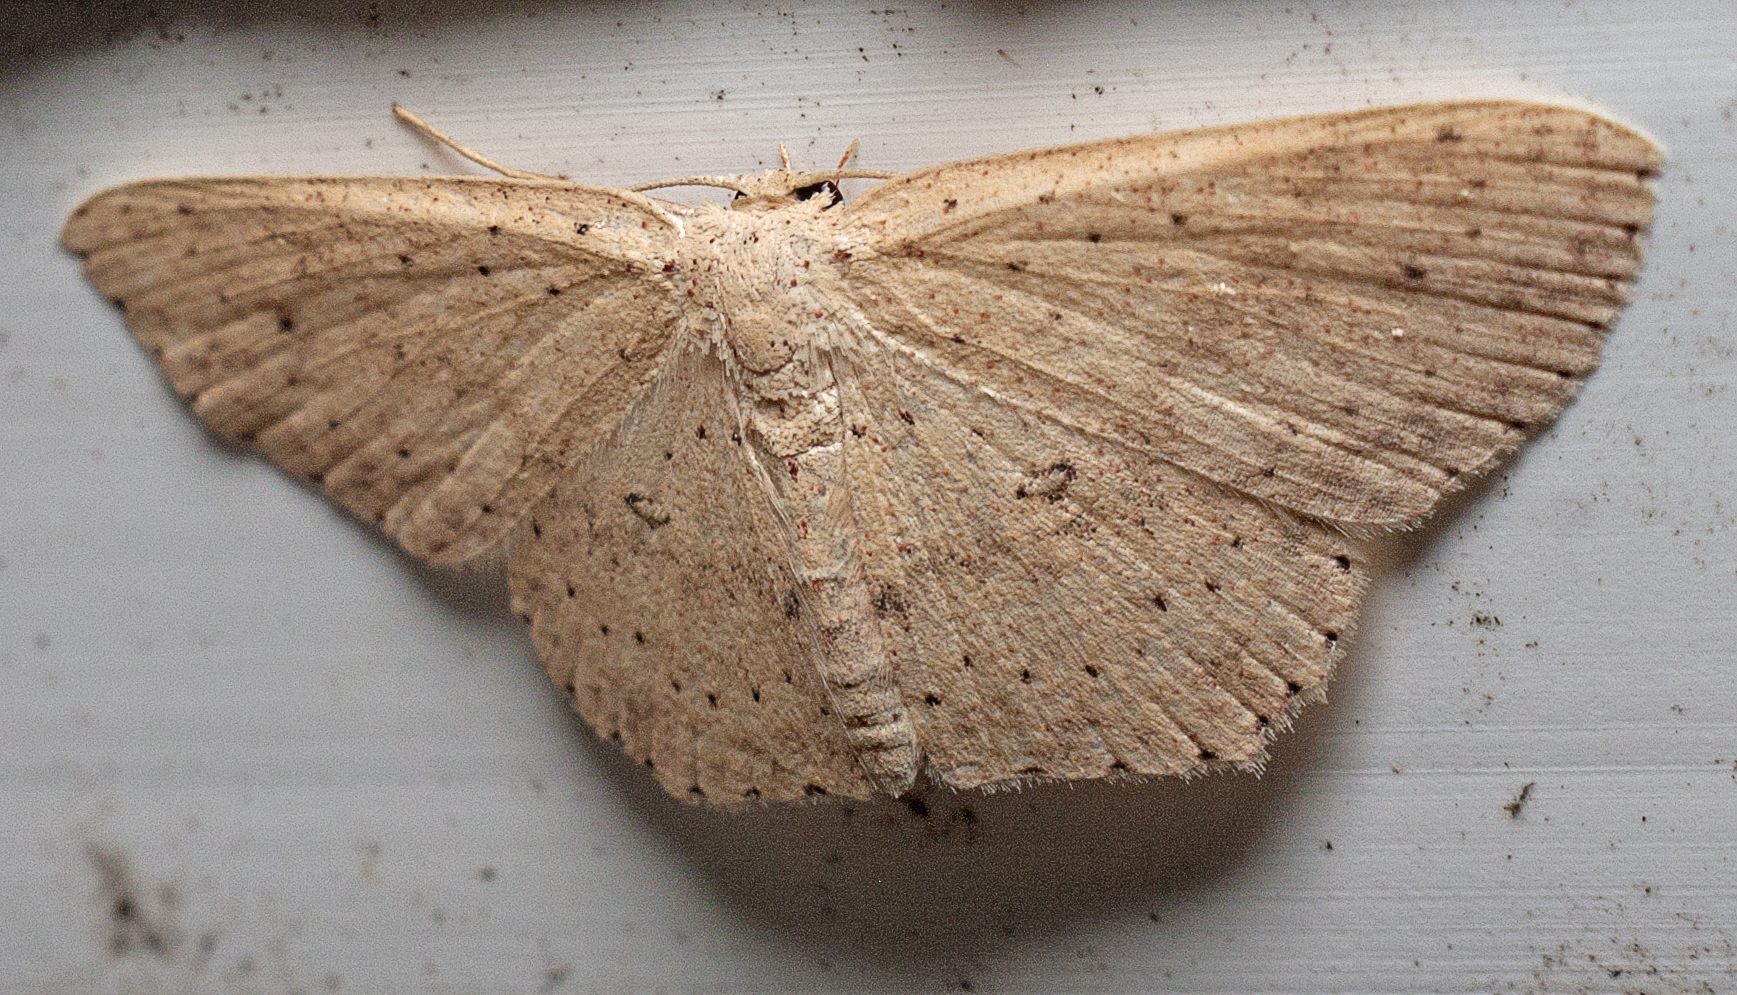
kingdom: Animalia
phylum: Arthropoda
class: Insecta
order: Lepidoptera
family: Geometridae
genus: Cyclophora
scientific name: Cyclophora turneri
